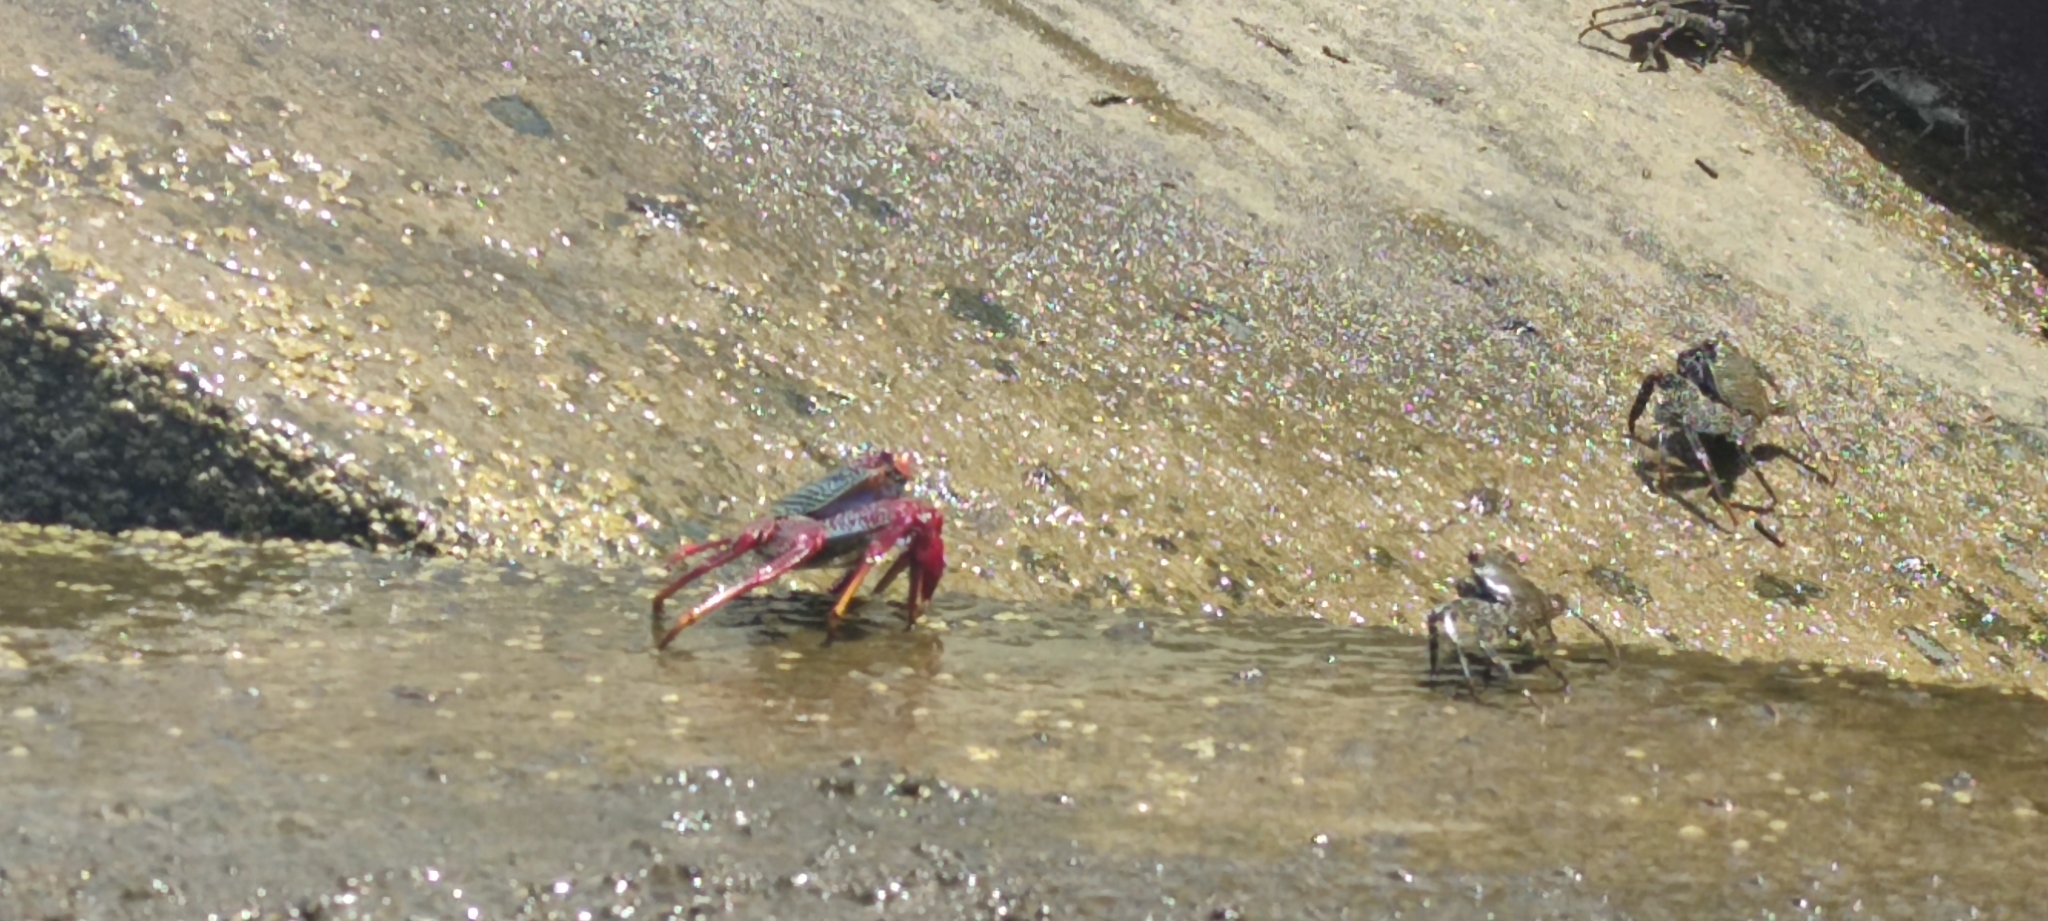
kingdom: Animalia
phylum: Arthropoda
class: Malacostraca
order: Decapoda
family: Grapsidae
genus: Grapsus
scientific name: Grapsus adscensionis
